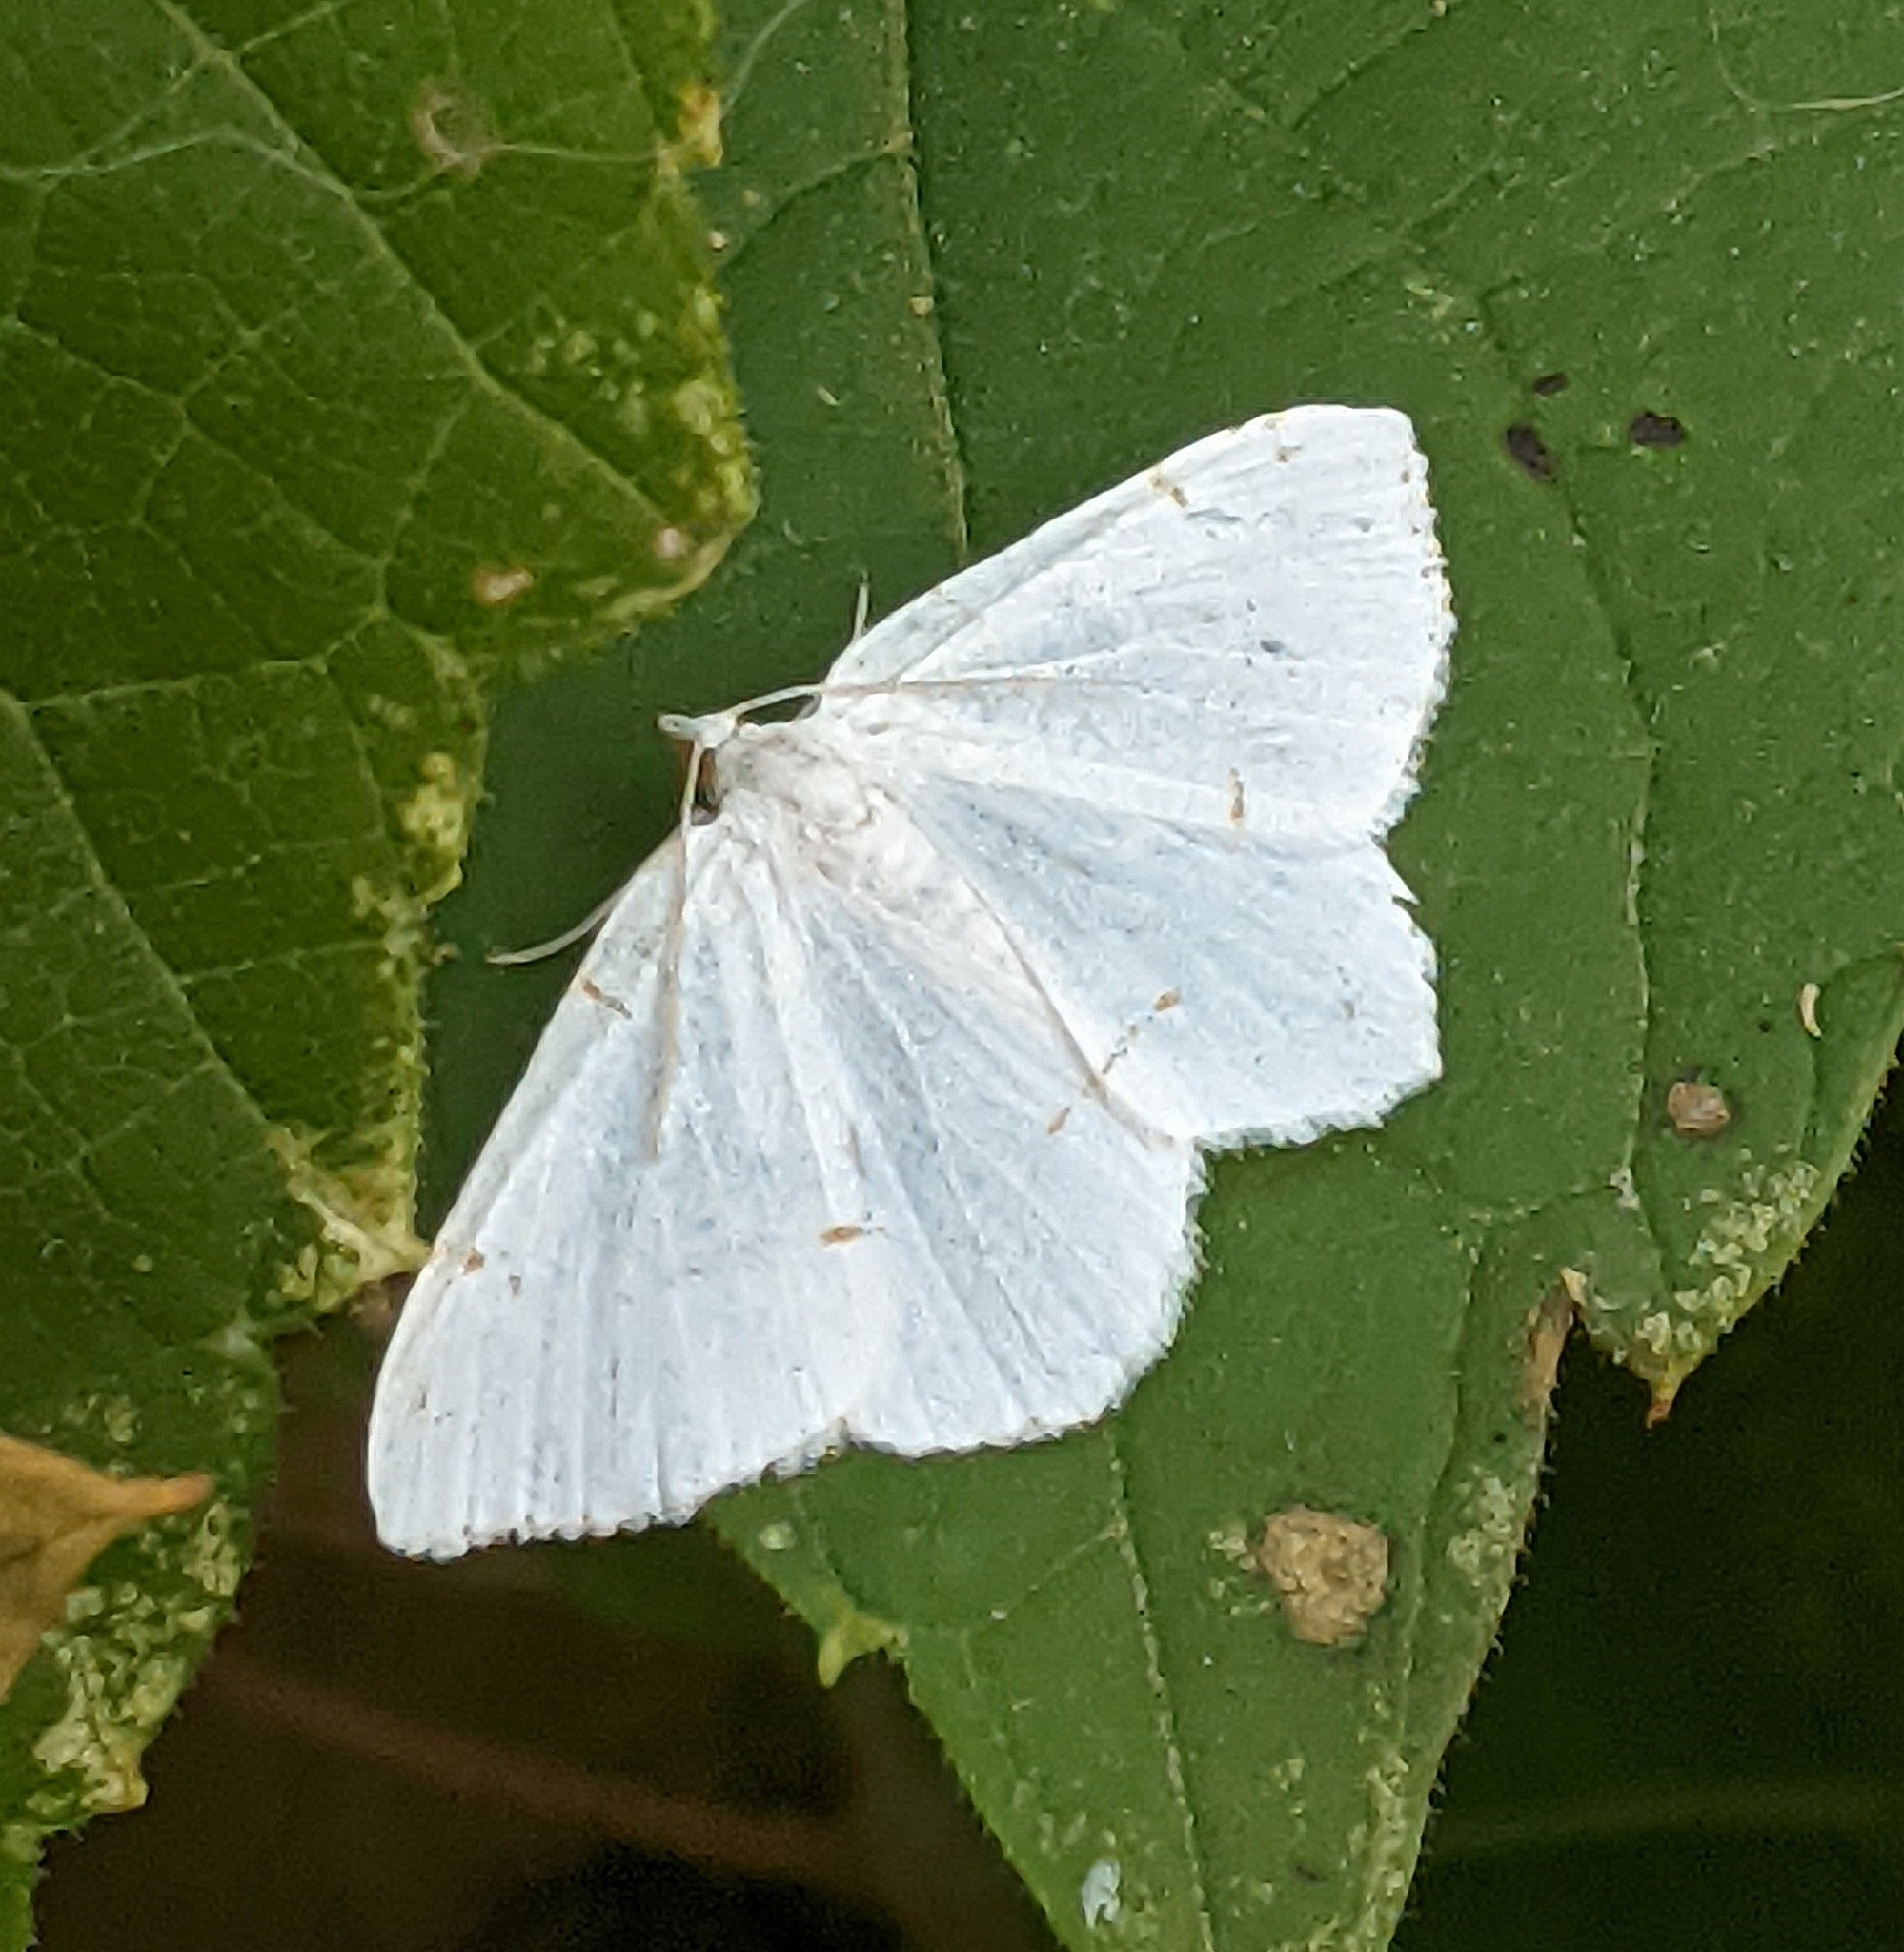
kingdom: Animalia
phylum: Arthropoda
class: Insecta
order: Lepidoptera
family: Geometridae
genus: Macaria
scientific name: Macaria pustularia
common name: Lesser maple spanworm moth
